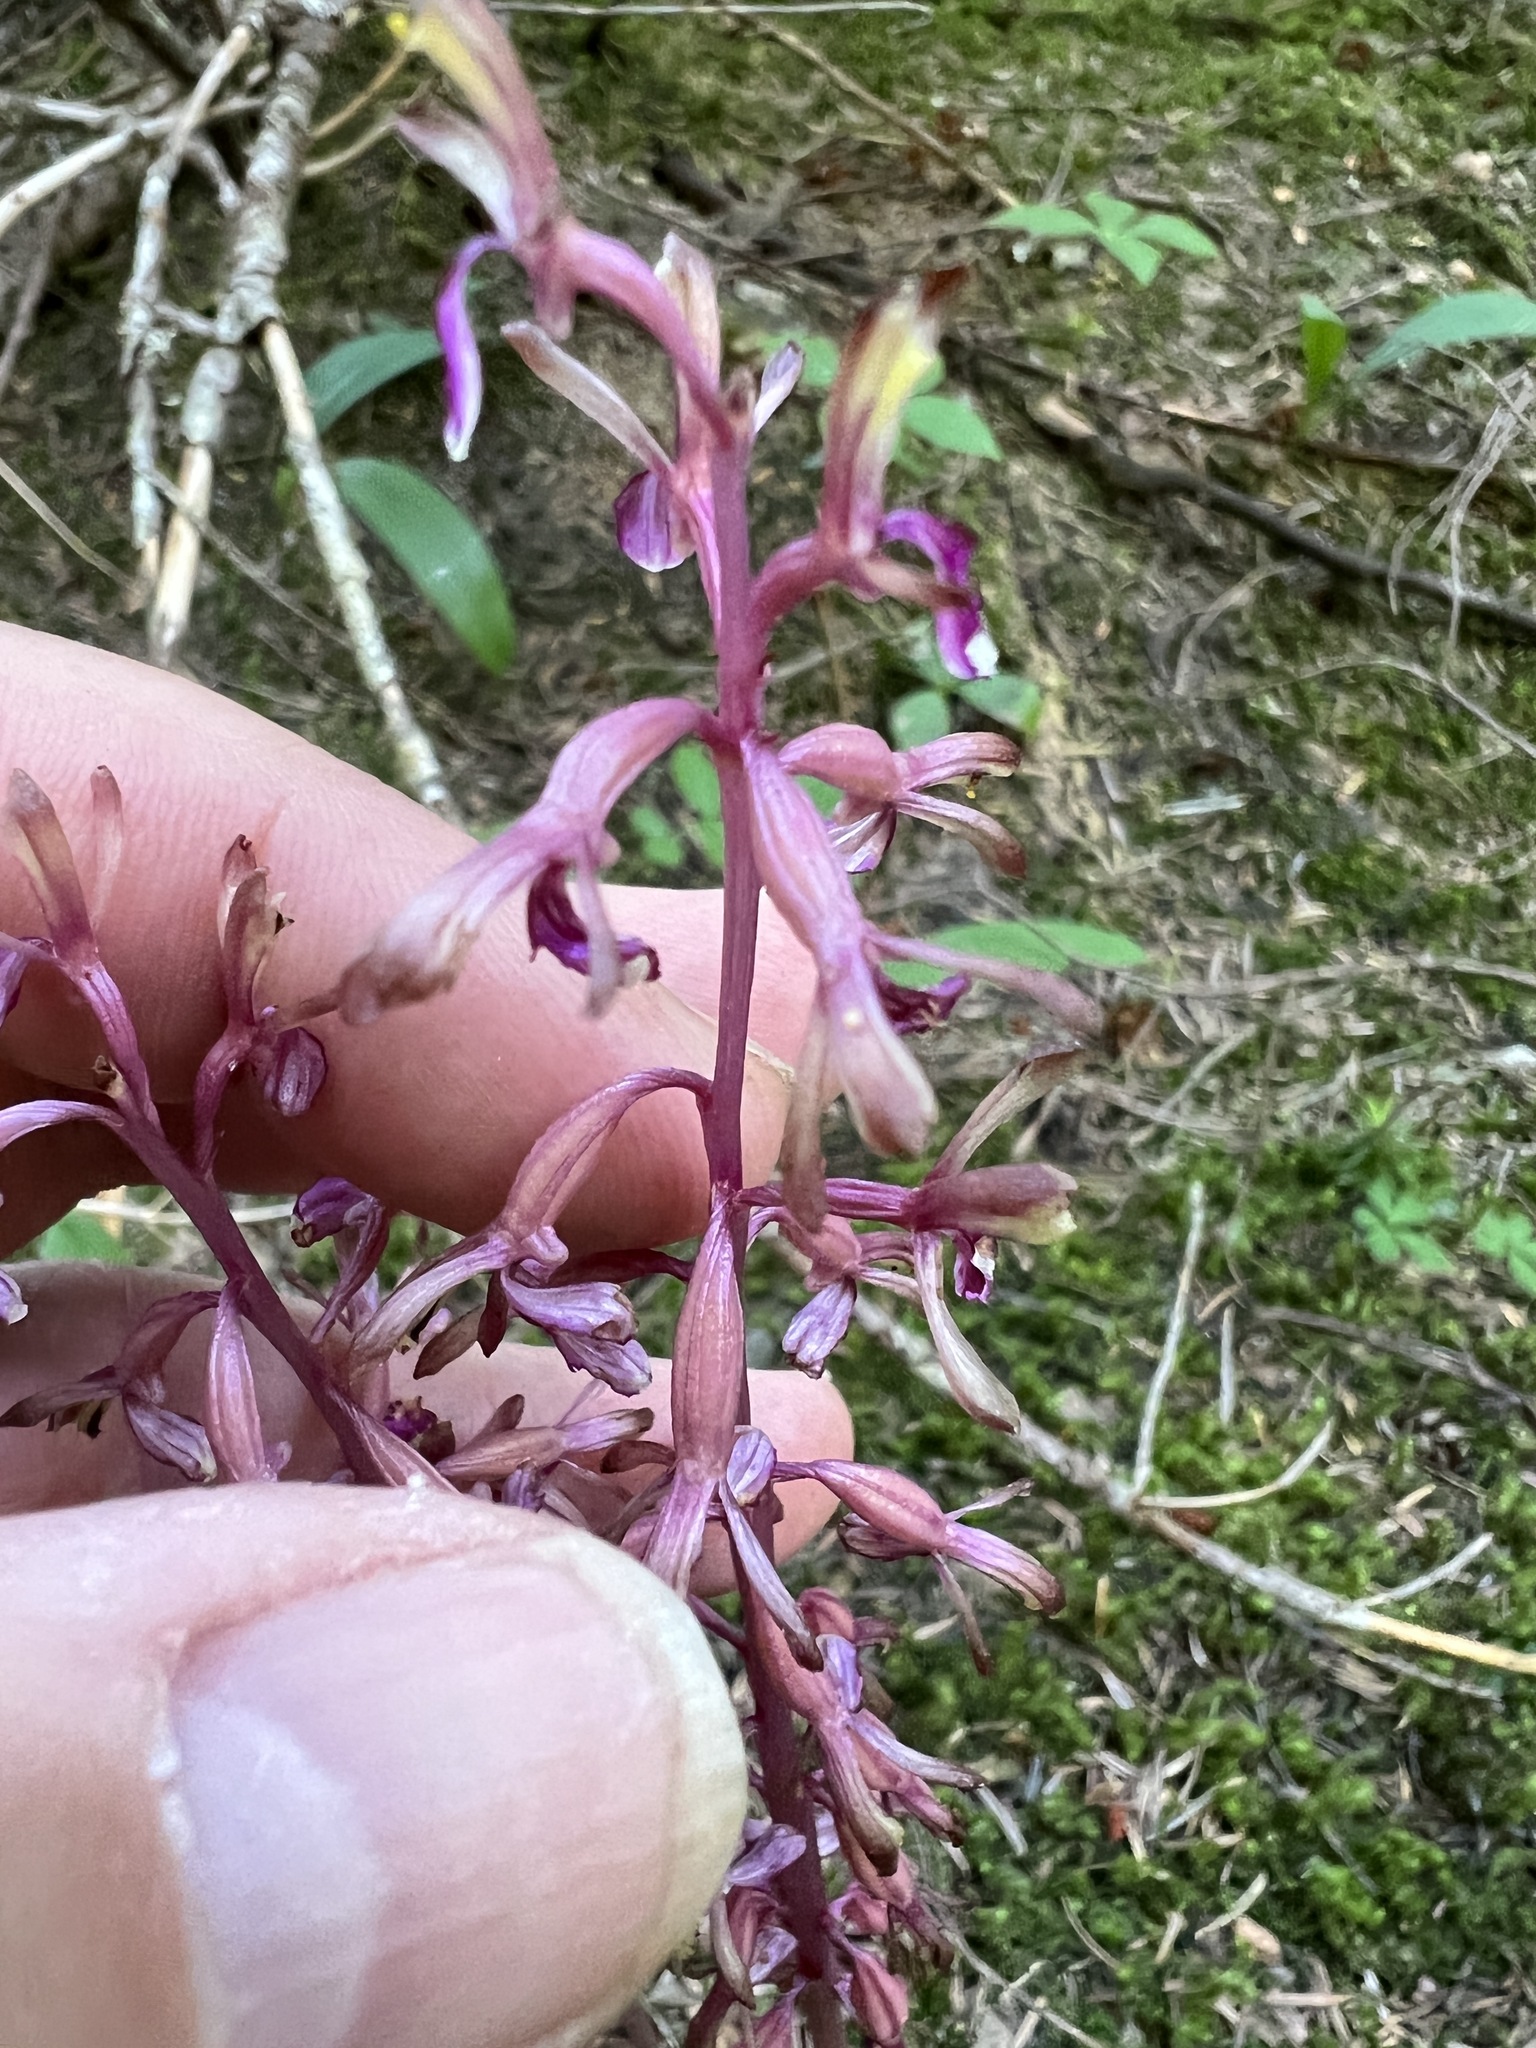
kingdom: Plantae
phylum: Tracheophyta
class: Liliopsida
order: Asparagales
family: Orchidaceae
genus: Corallorhiza
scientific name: Corallorhiza mertensiana
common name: Pacific coralroot
